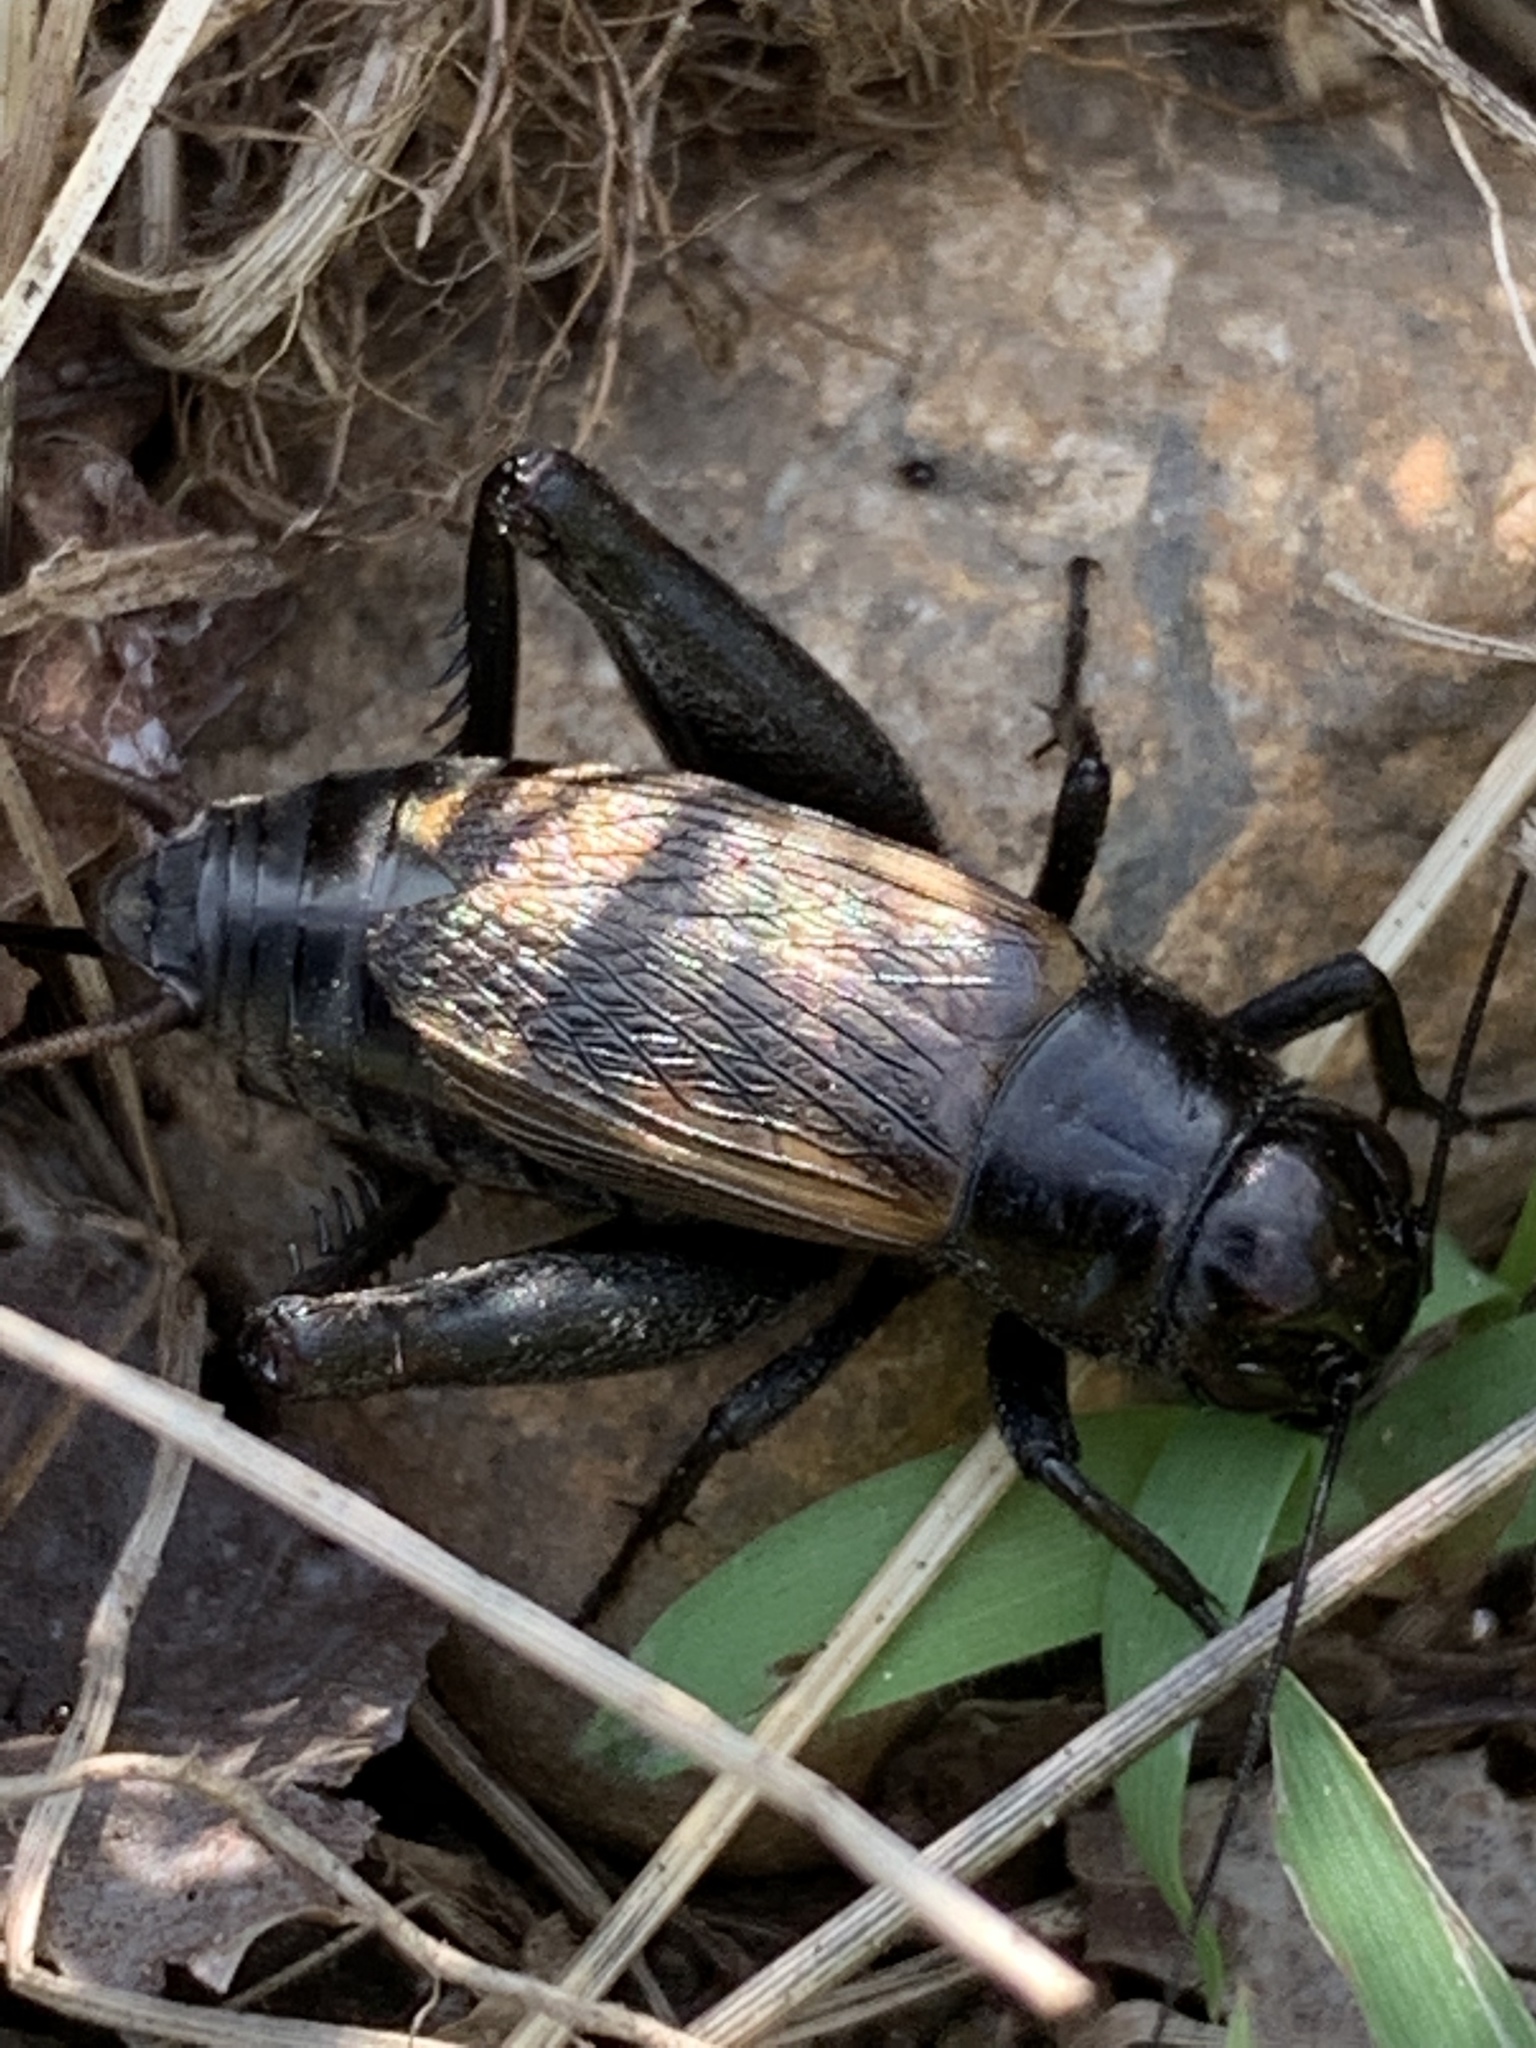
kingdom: Animalia
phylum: Arthropoda
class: Insecta
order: Orthoptera
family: Gryllidae
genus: Gryllus
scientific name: Gryllus veletis
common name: Spring field cricket
